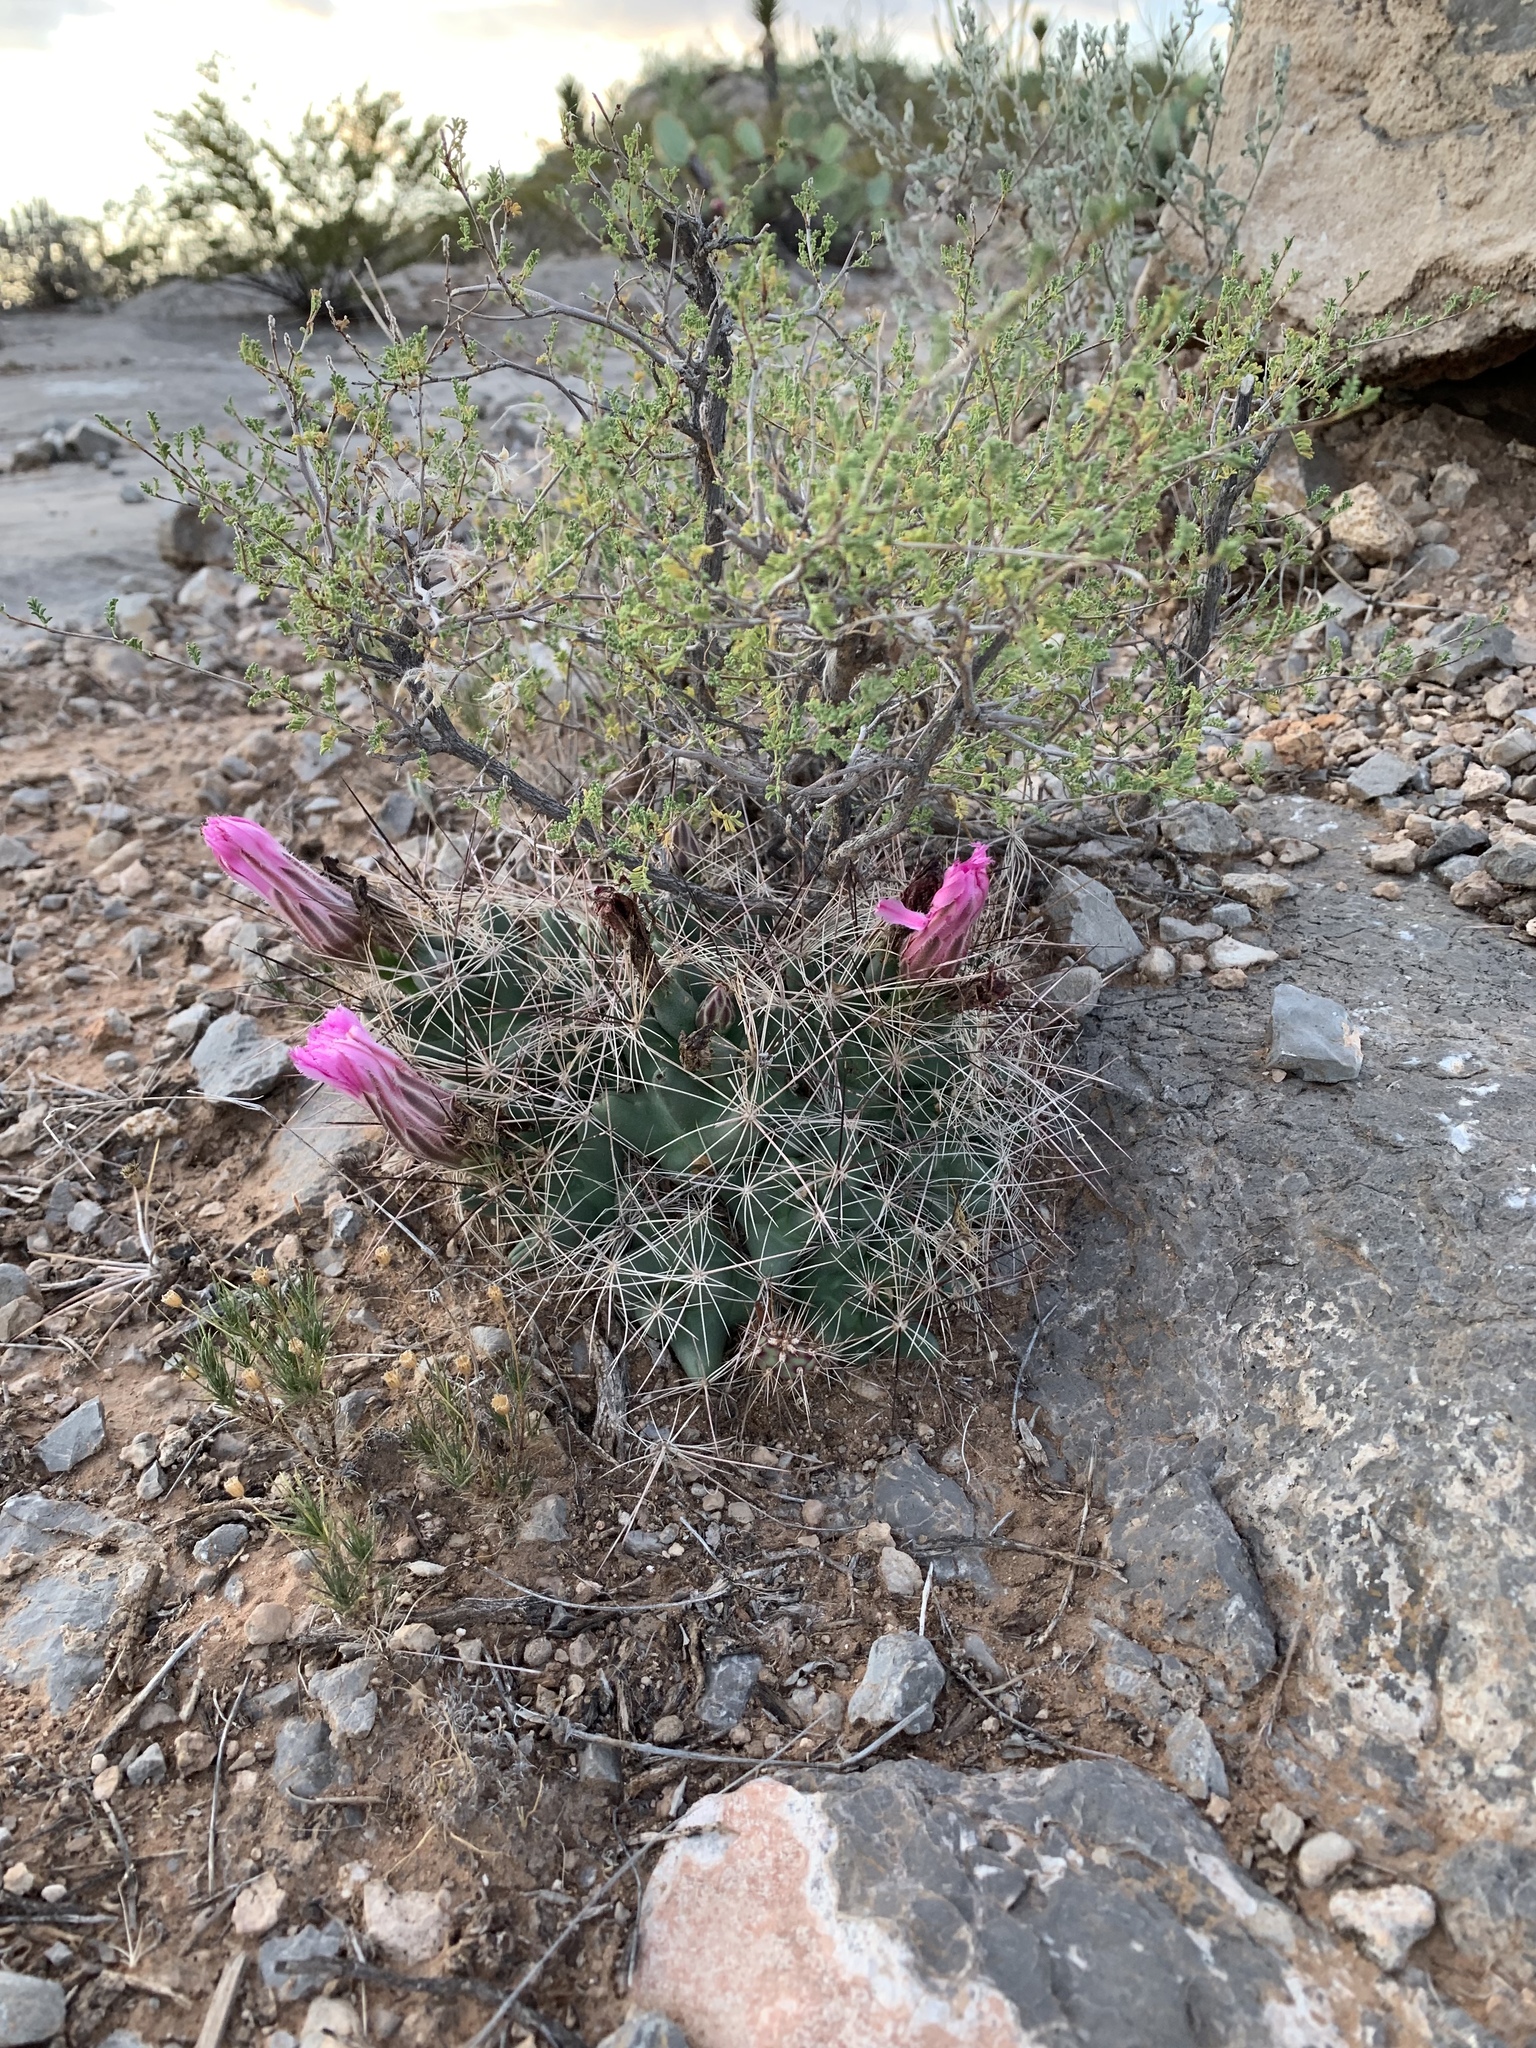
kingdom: Plantae
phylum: Tracheophyta
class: Magnoliopsida
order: Caryophyllales
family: Cactaceae
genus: Coryphantha
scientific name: Coryphantha macromeris
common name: Nipple beehive cactus
